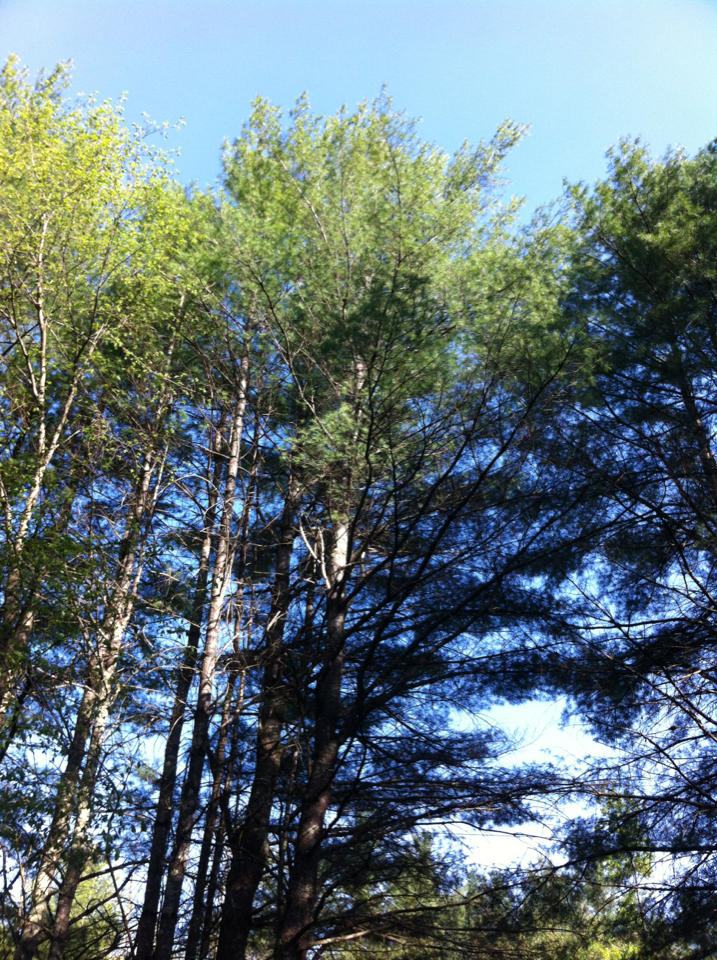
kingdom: Plantae
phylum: Tracheophyta
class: Pinopsida
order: Pinales
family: Pinaceae
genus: Pinus
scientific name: Pinus strobus
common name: Weymouth pine
